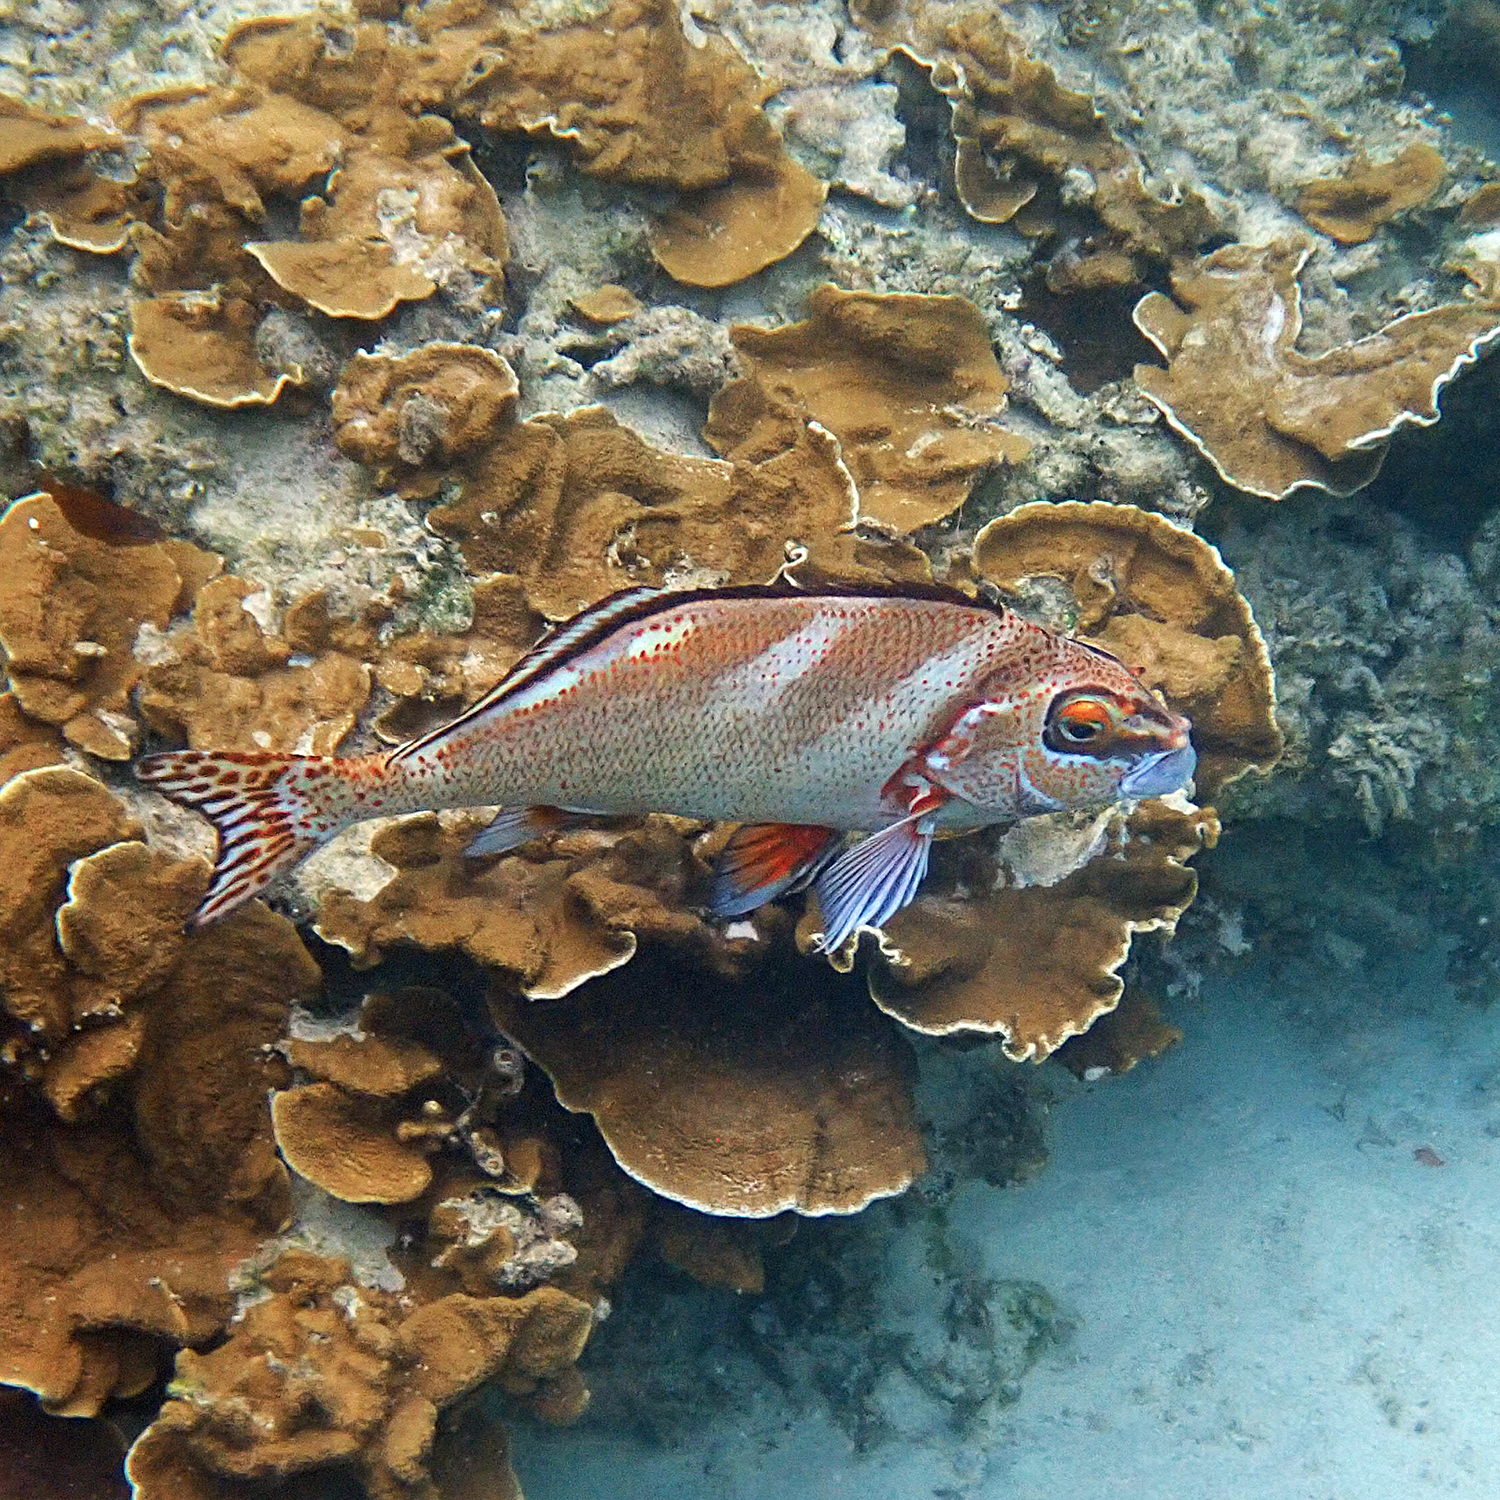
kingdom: Animalia
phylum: Chordata
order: Perciformes
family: Latridae
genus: Morwong
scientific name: Morwong ephippium
